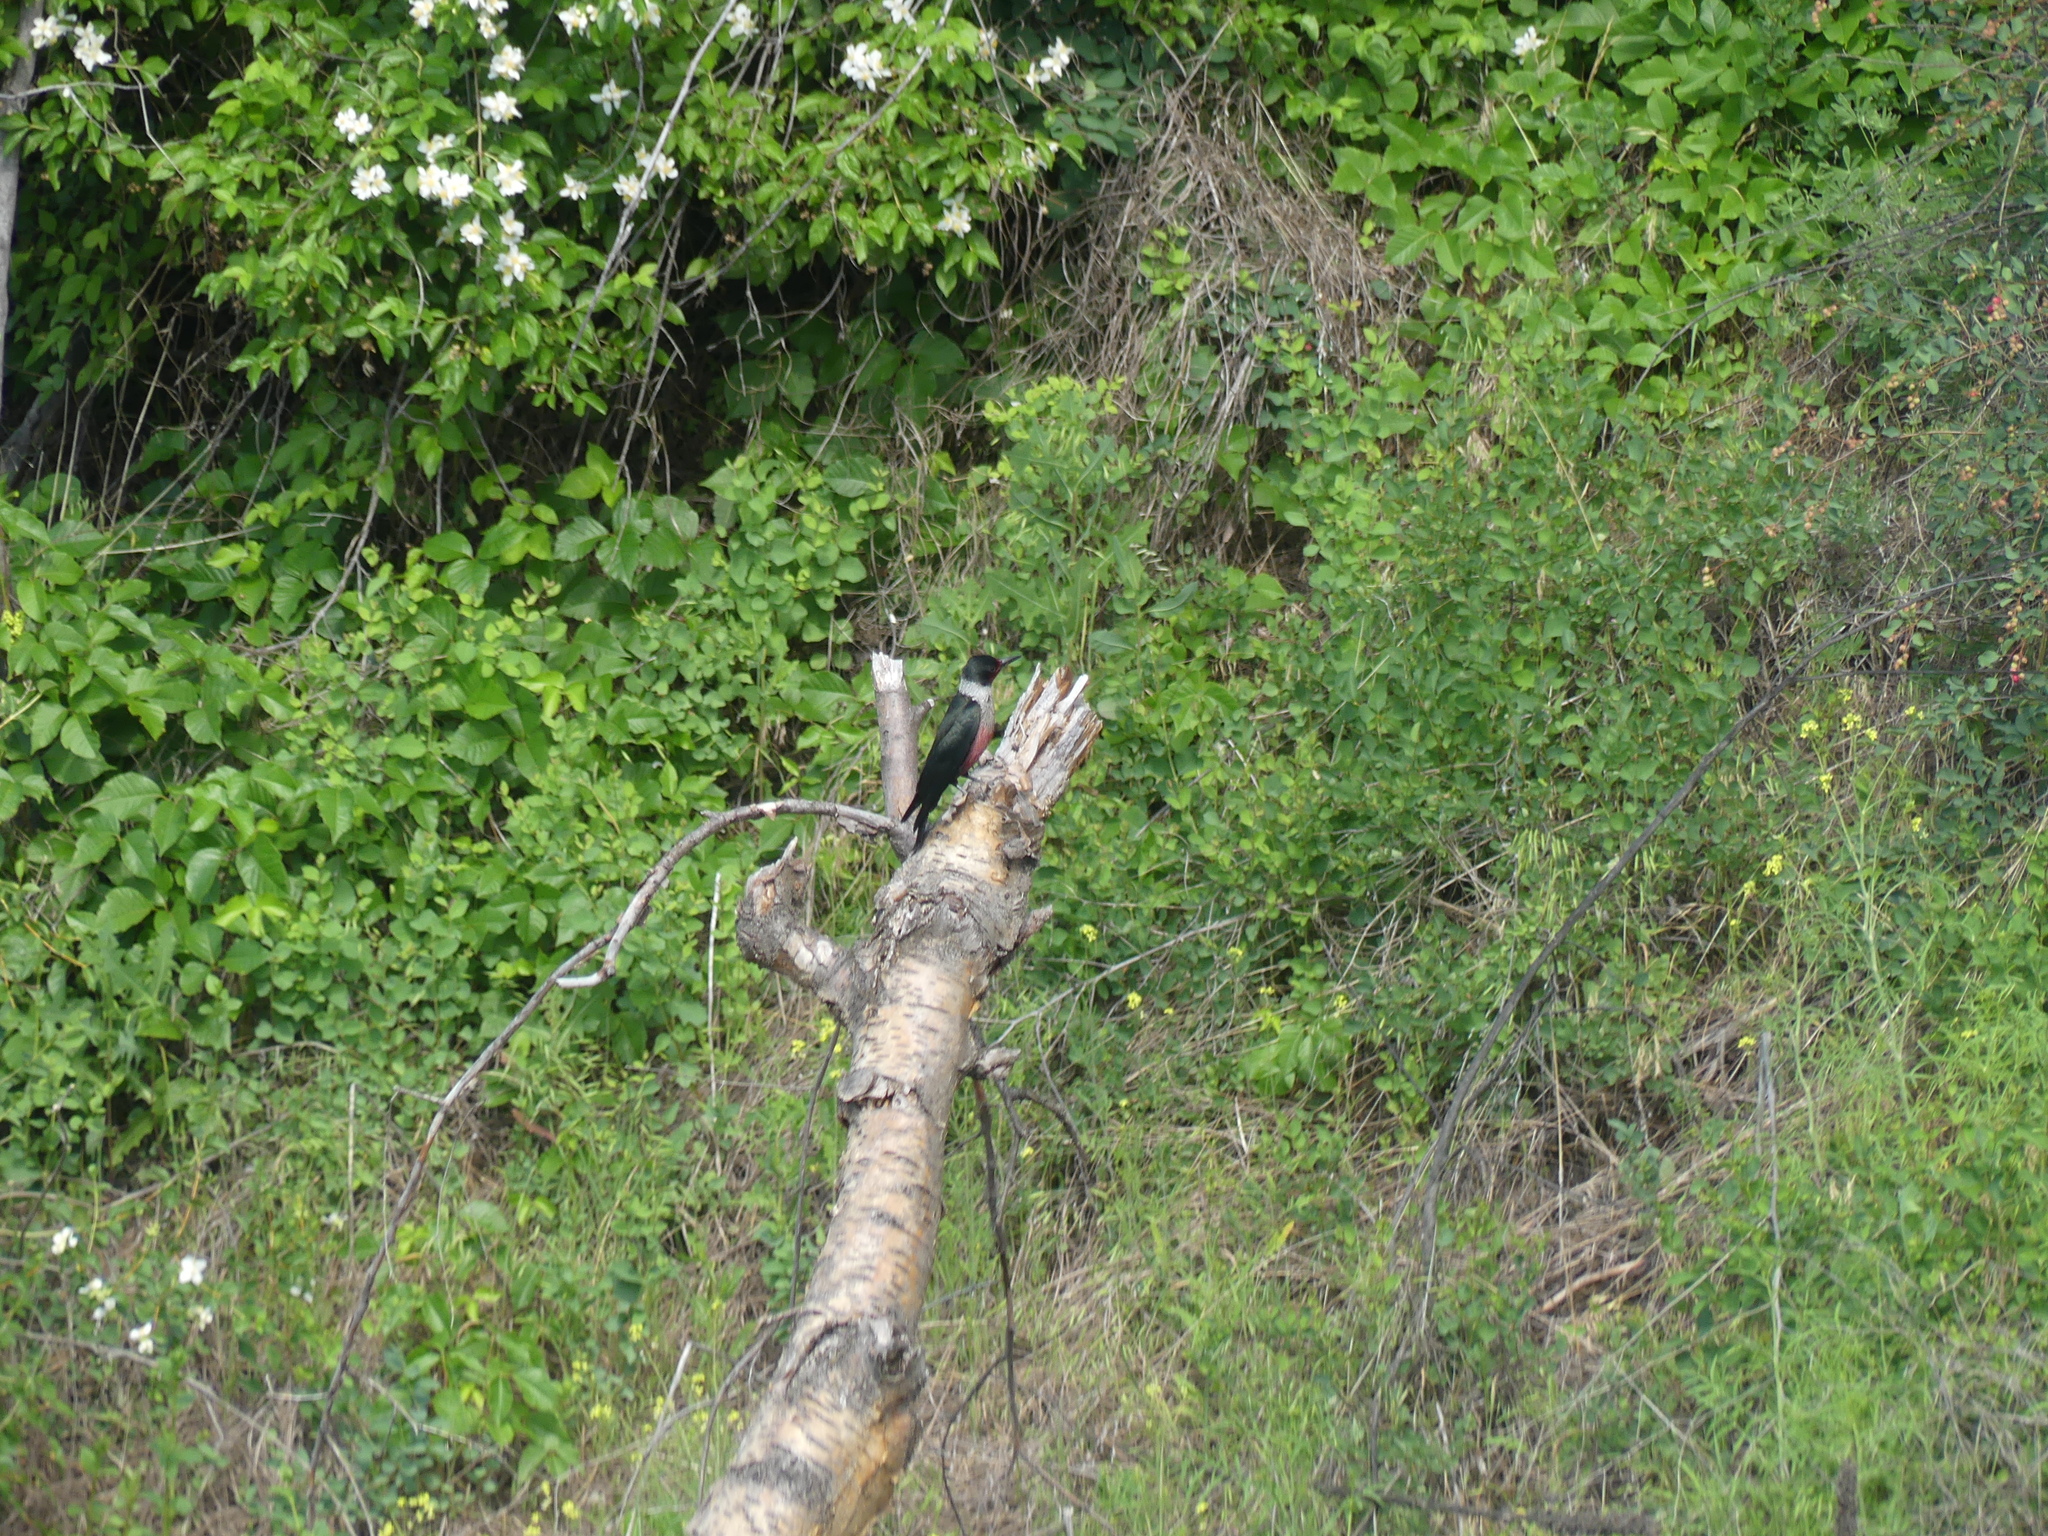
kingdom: Animalia
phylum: Chordata
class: Aves
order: Piciformes
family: Picidae
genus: Melanerpes
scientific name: Melanerpes lewis
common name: Lewis's woodpecker
